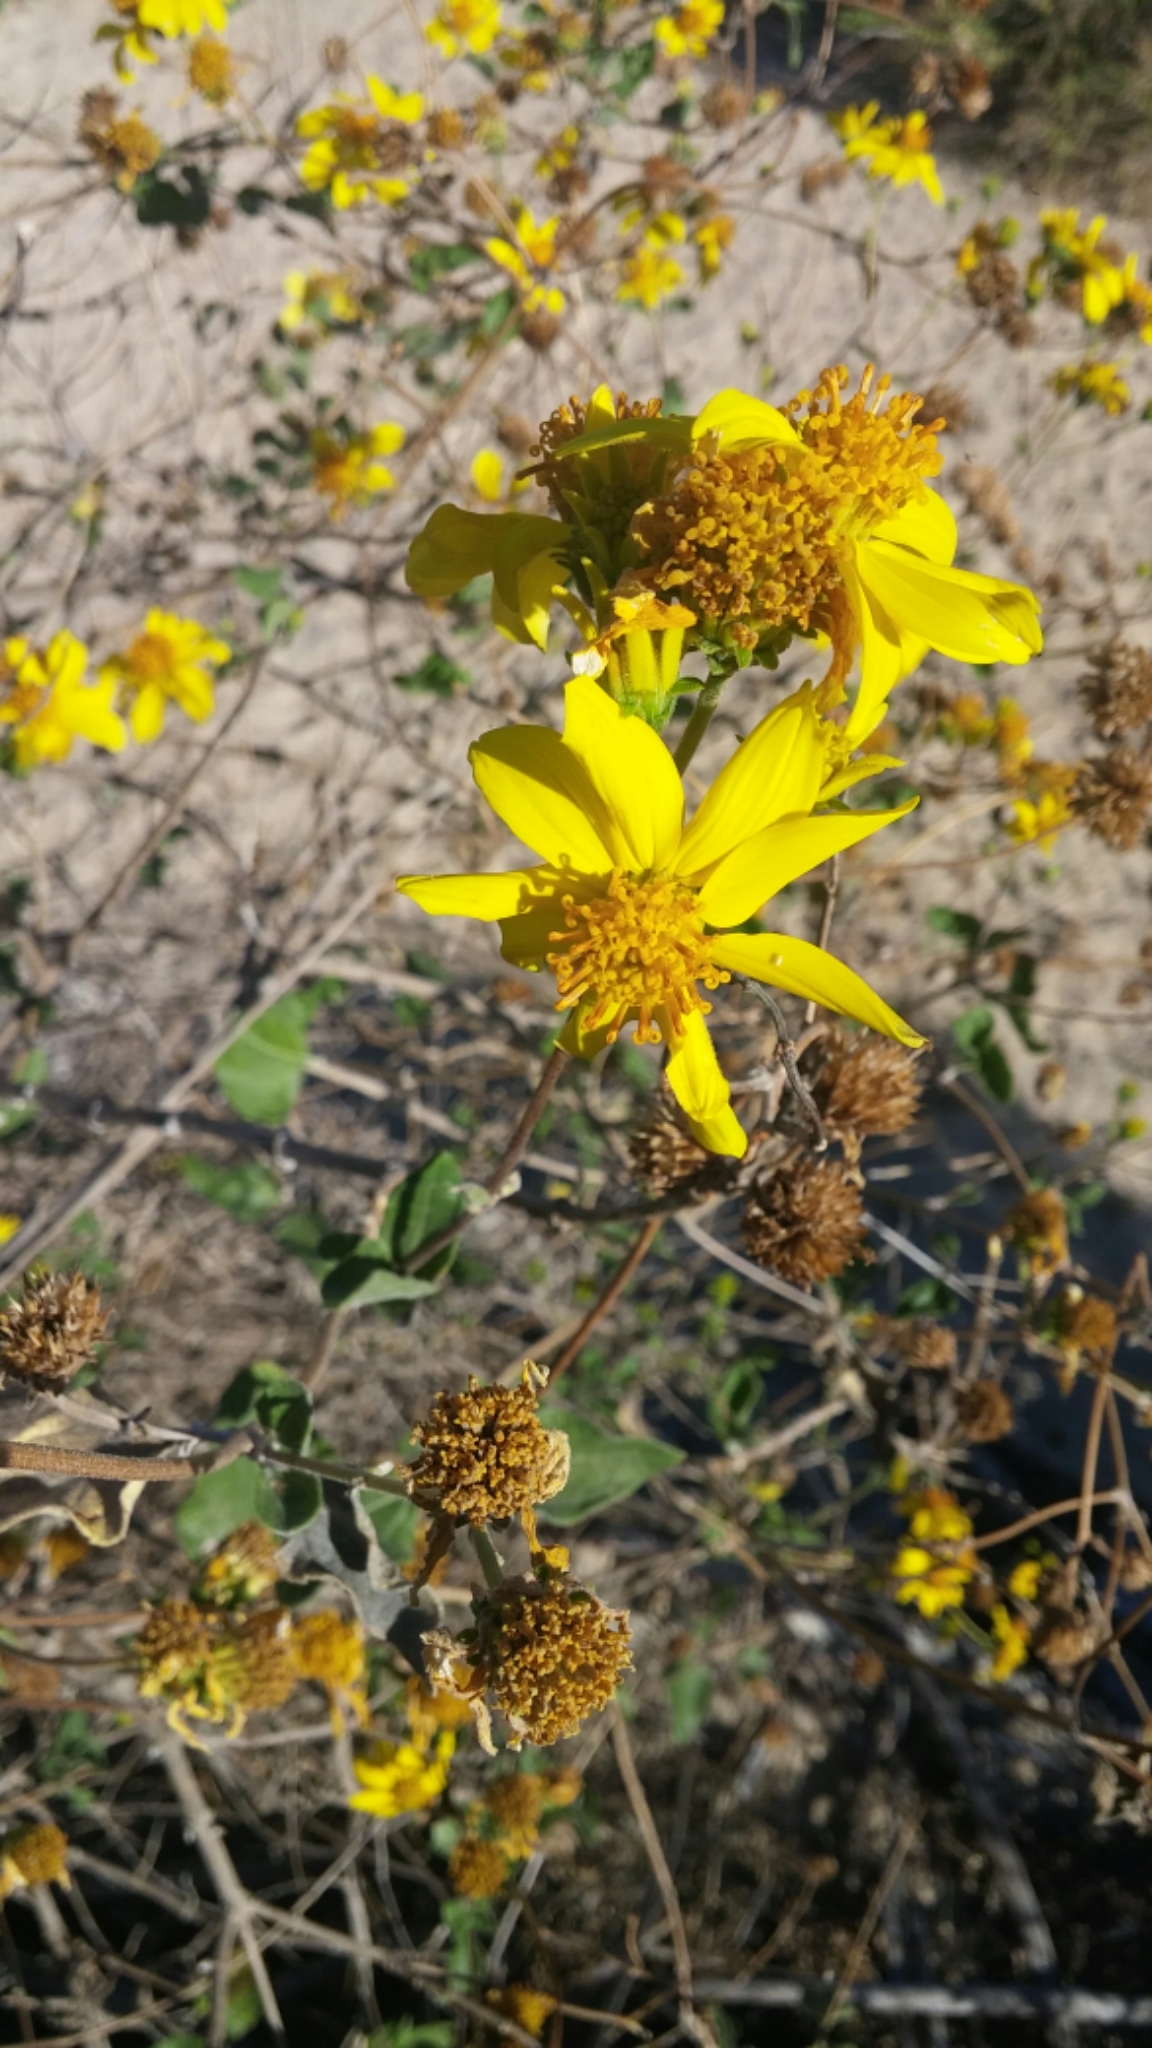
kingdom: Plantae
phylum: Tracheophyta
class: Magnoliopsida
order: Asterales
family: Asteraceae
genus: Bahiopsis
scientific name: Bahiopsis tomentosa
